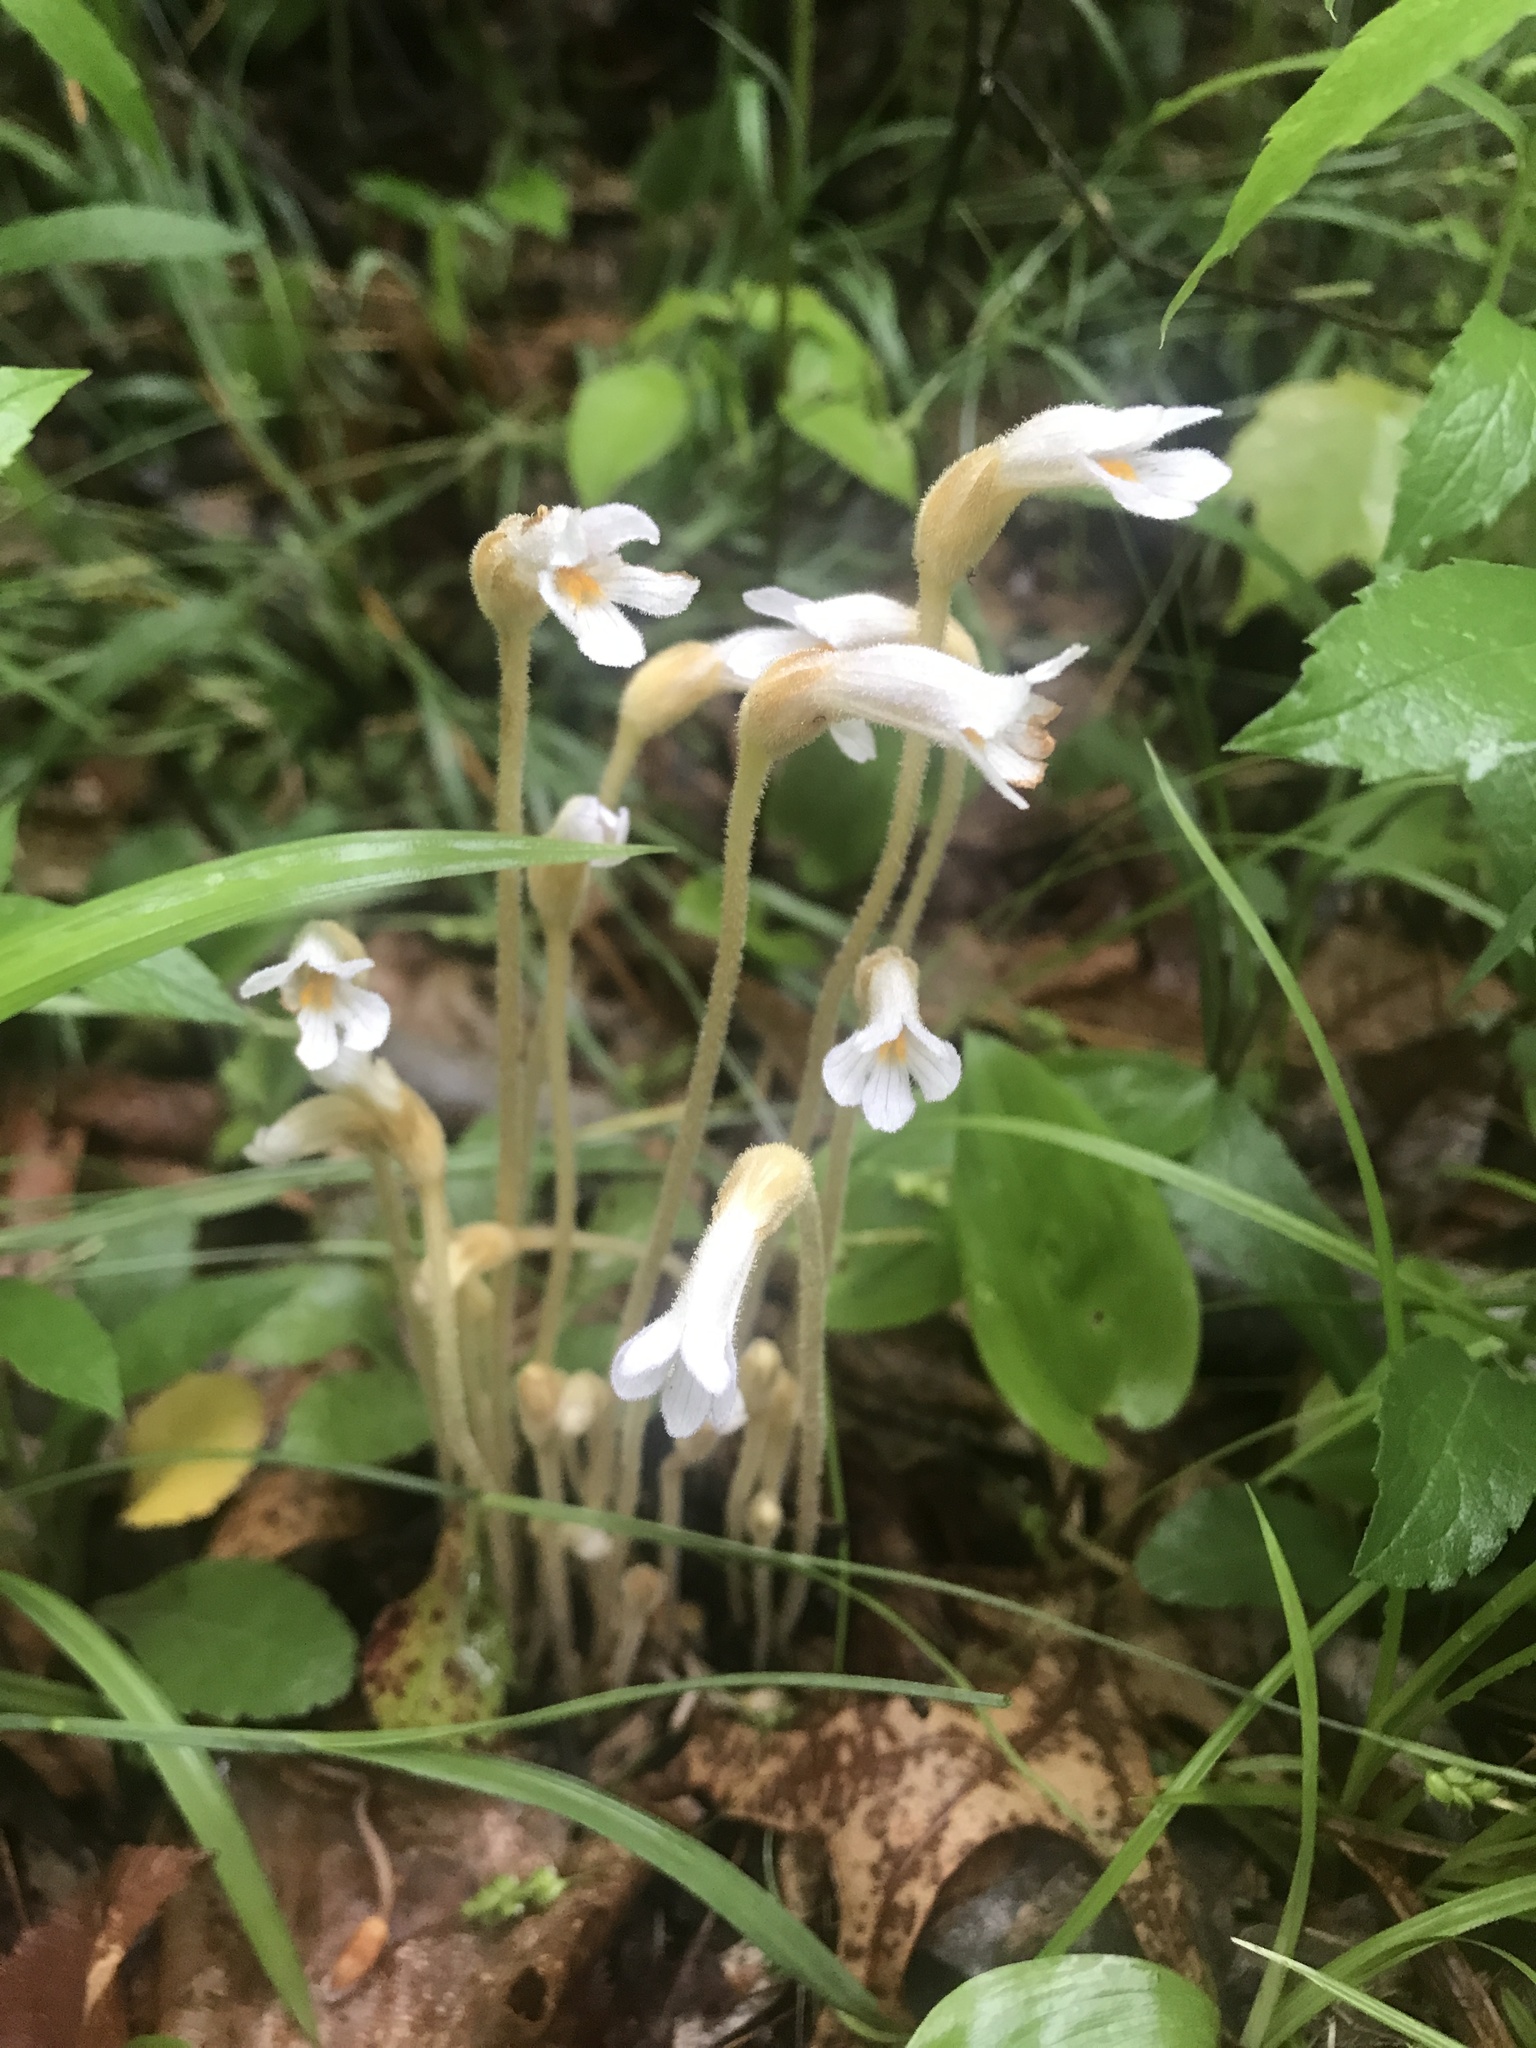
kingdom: Plantae
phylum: Tracheophyta
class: Magnoliopsida
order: Lamiales
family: Orobanchaceae
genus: Aphyllon
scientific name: Aphyllon uniflorum
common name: One-flowered broomrape
